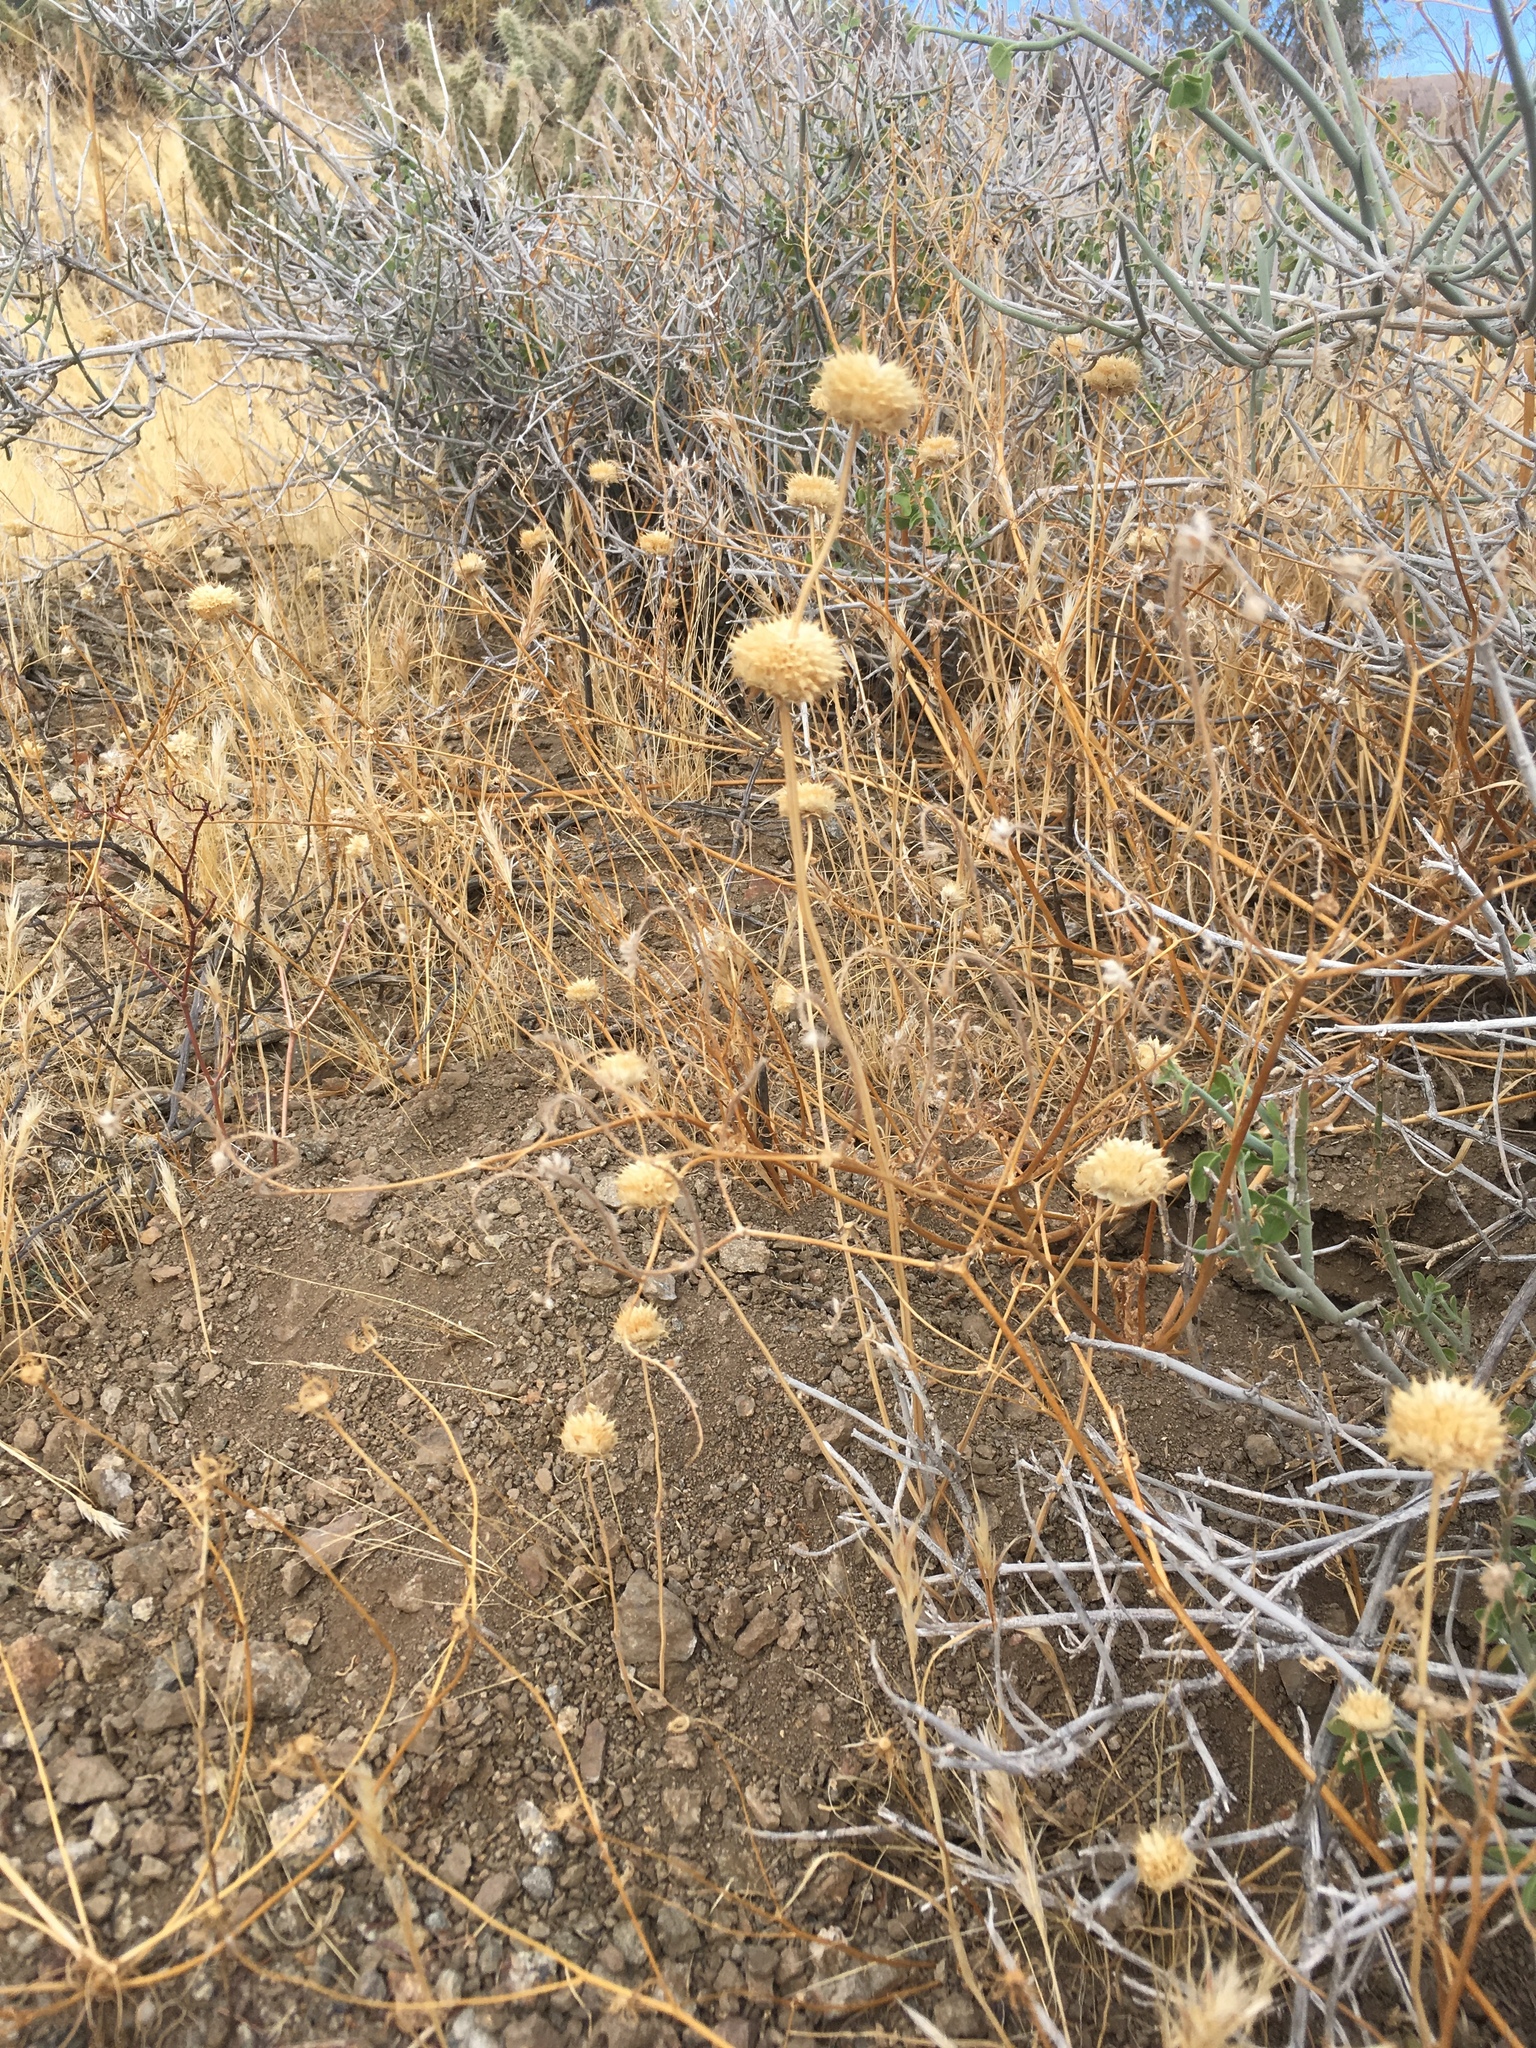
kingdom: Plantae
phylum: Tracheophyta
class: Magnoliopsida
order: Lamiales
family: Lamiaceae
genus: Salvia
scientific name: Salvia columbariae
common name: Chia
